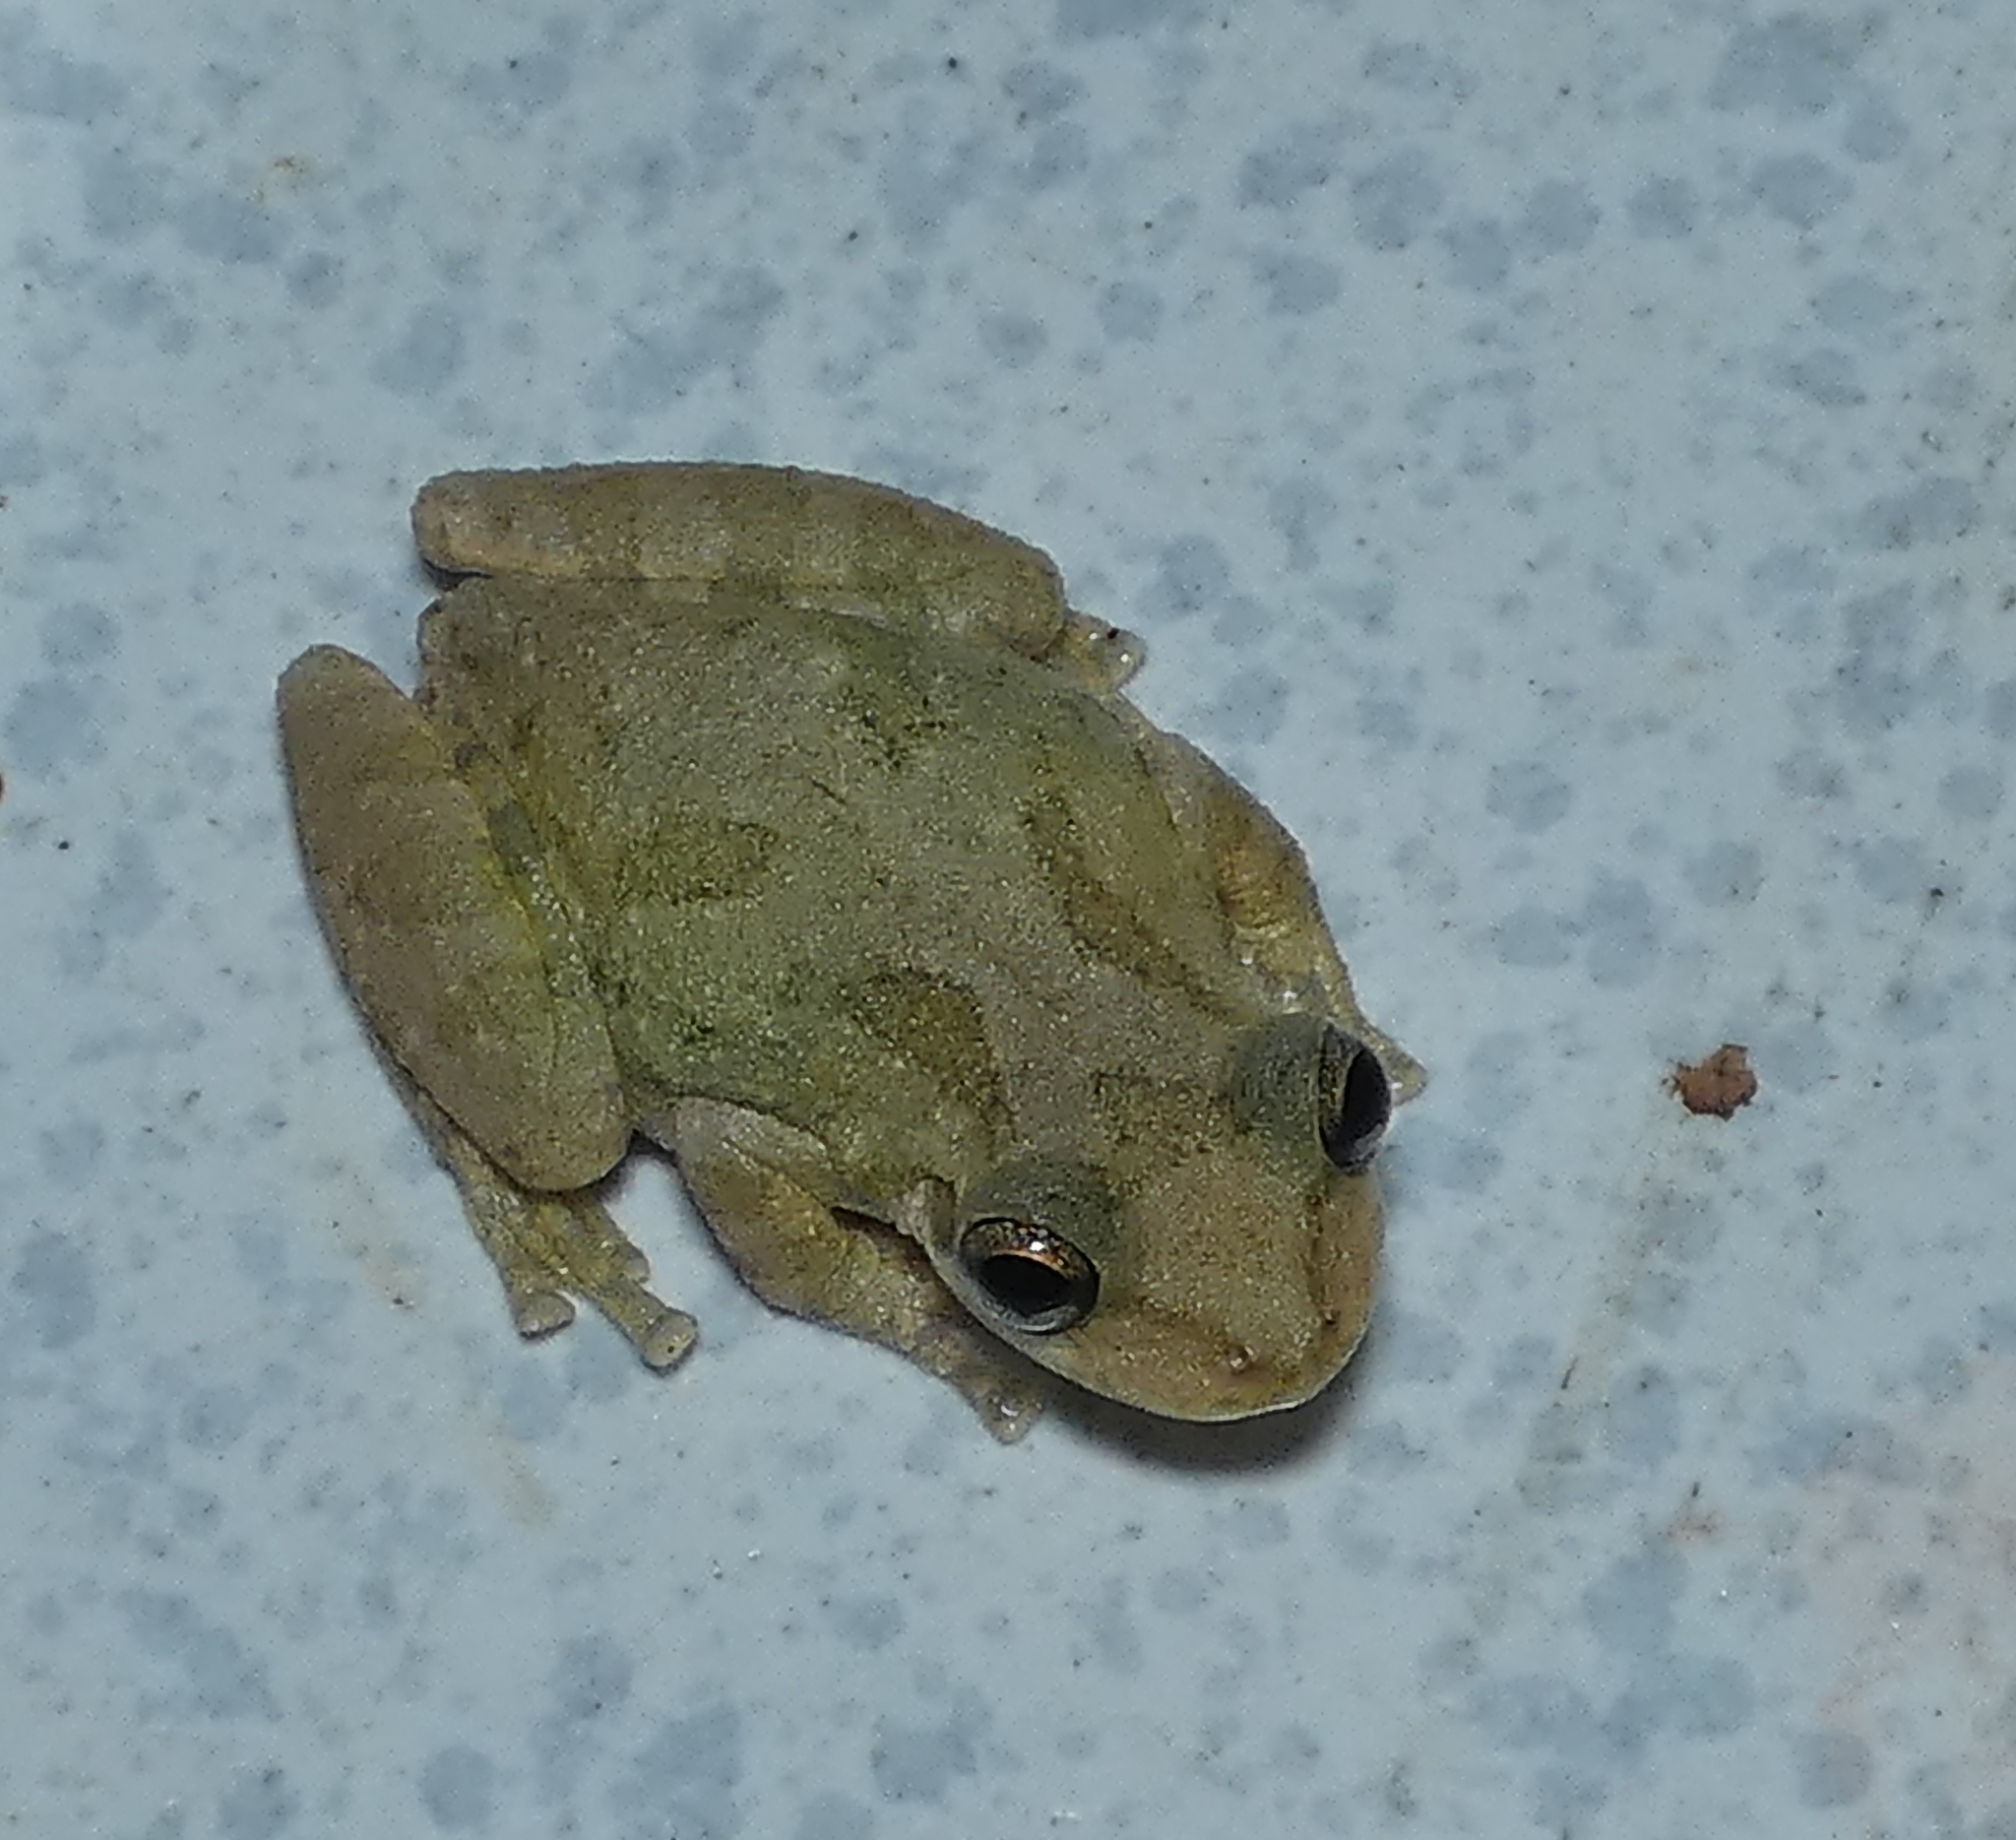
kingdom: Animalia
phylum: Chordata
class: Amphibia
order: Anura
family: Hylidae
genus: Scinax
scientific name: Scinax x-signatus
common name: Venezuela snouted treefrog
